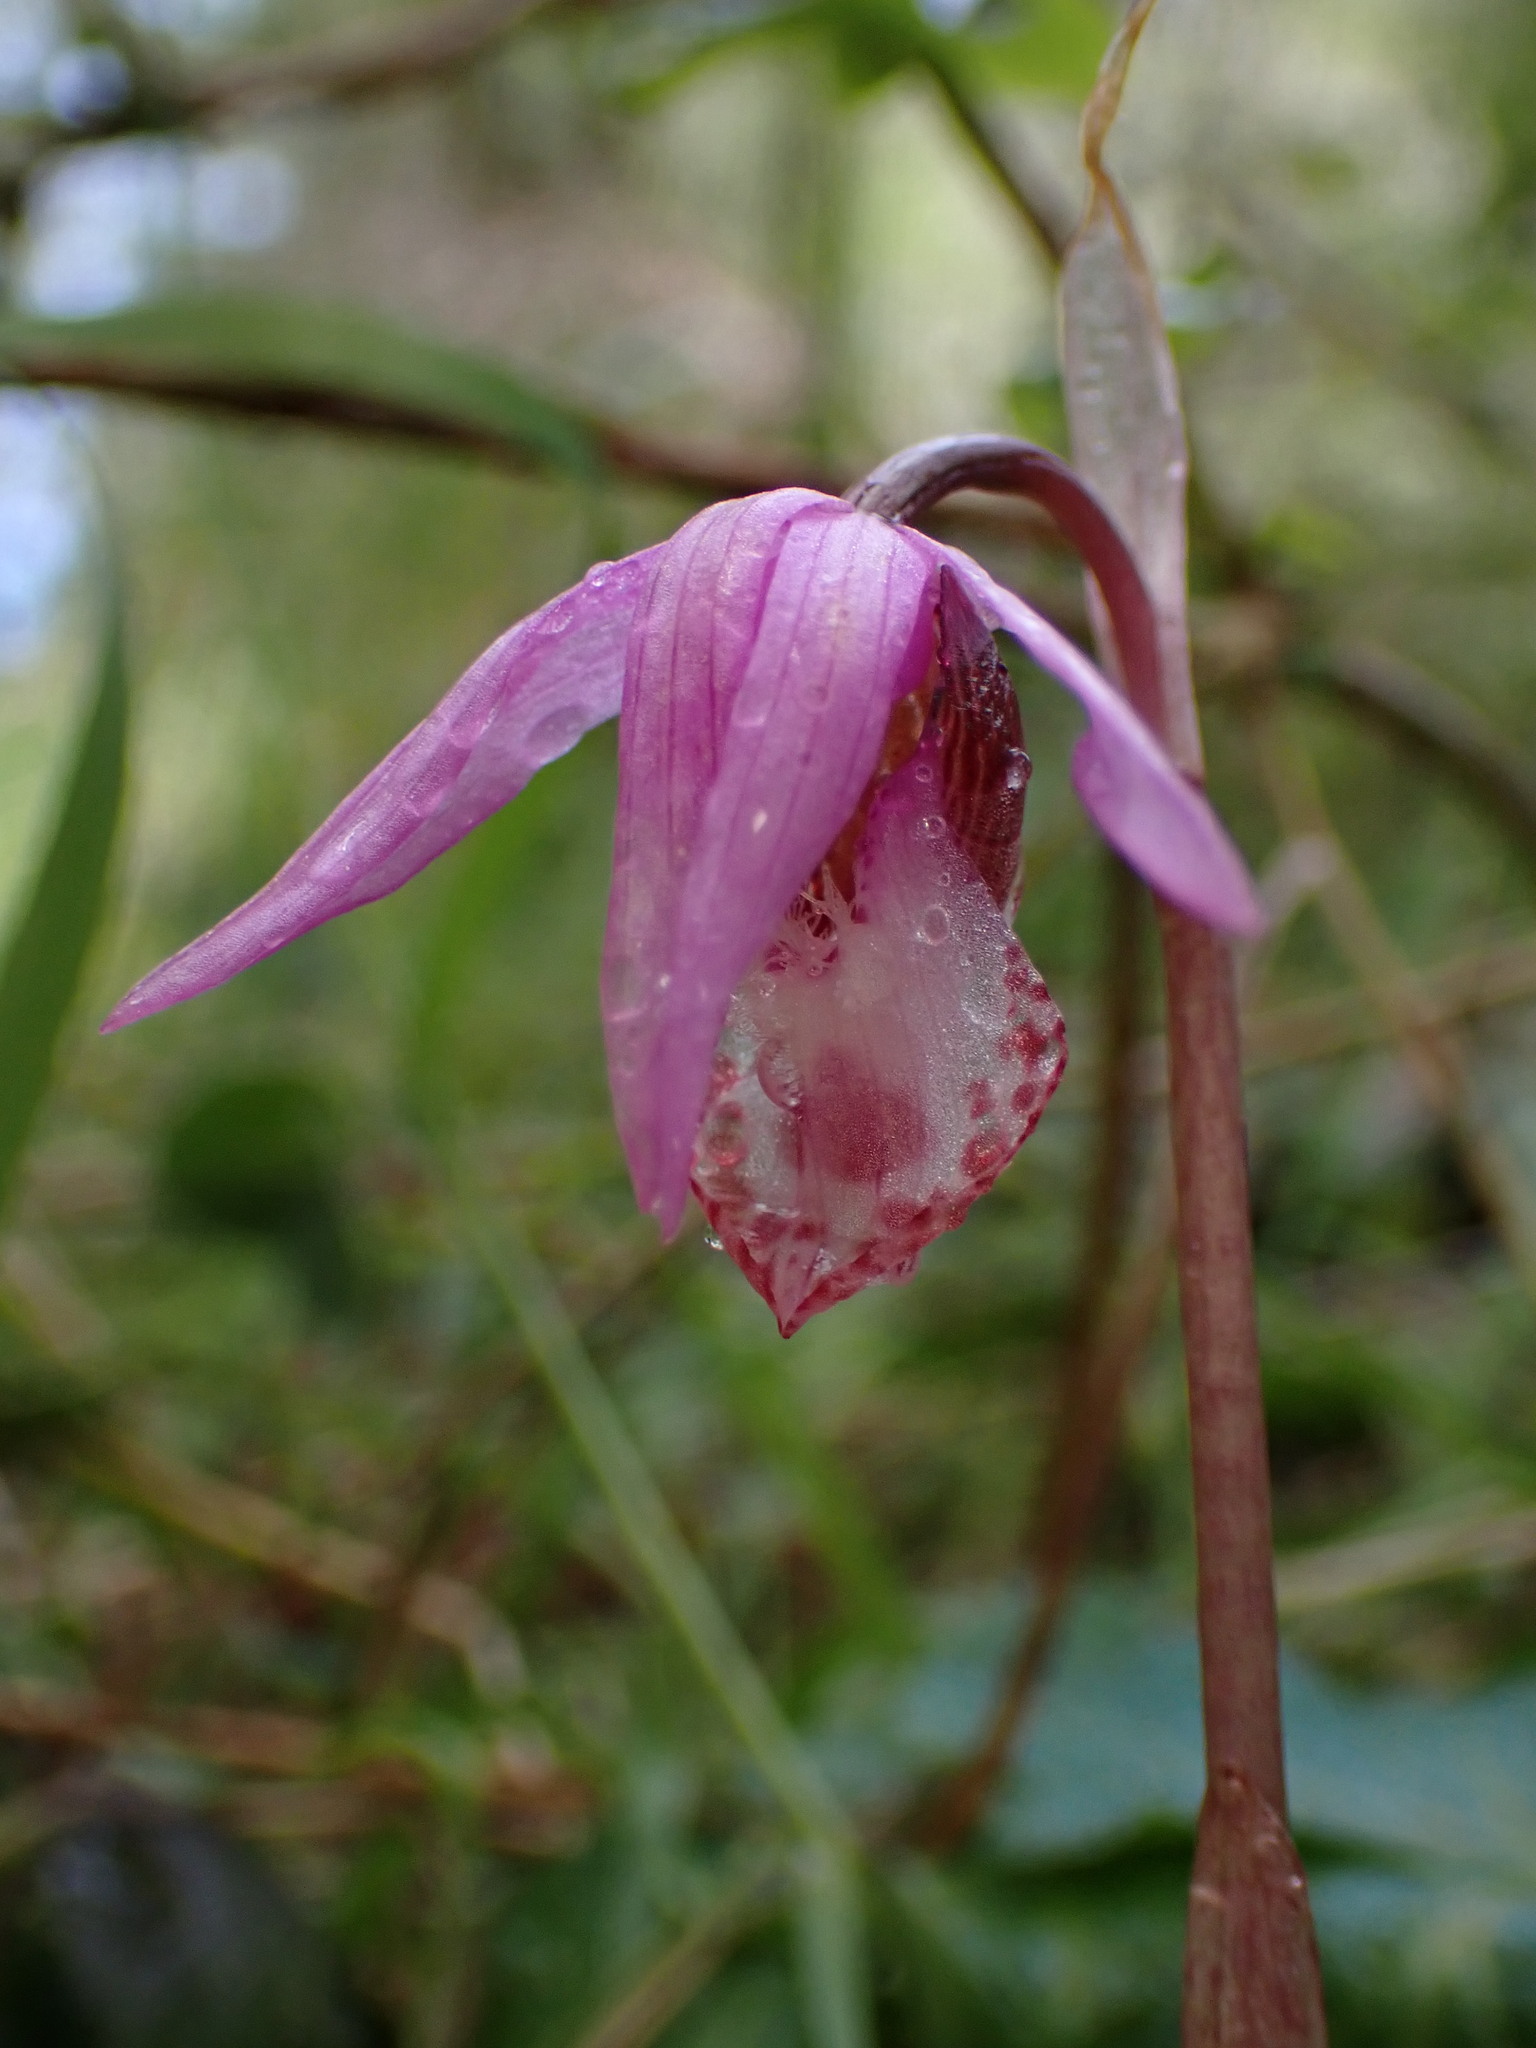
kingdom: Plantae
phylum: Tracheophyta
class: Liliopsida
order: Asparagales
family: Orchidaceae
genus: Calypso
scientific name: Calypso bulbosa
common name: Calypso
